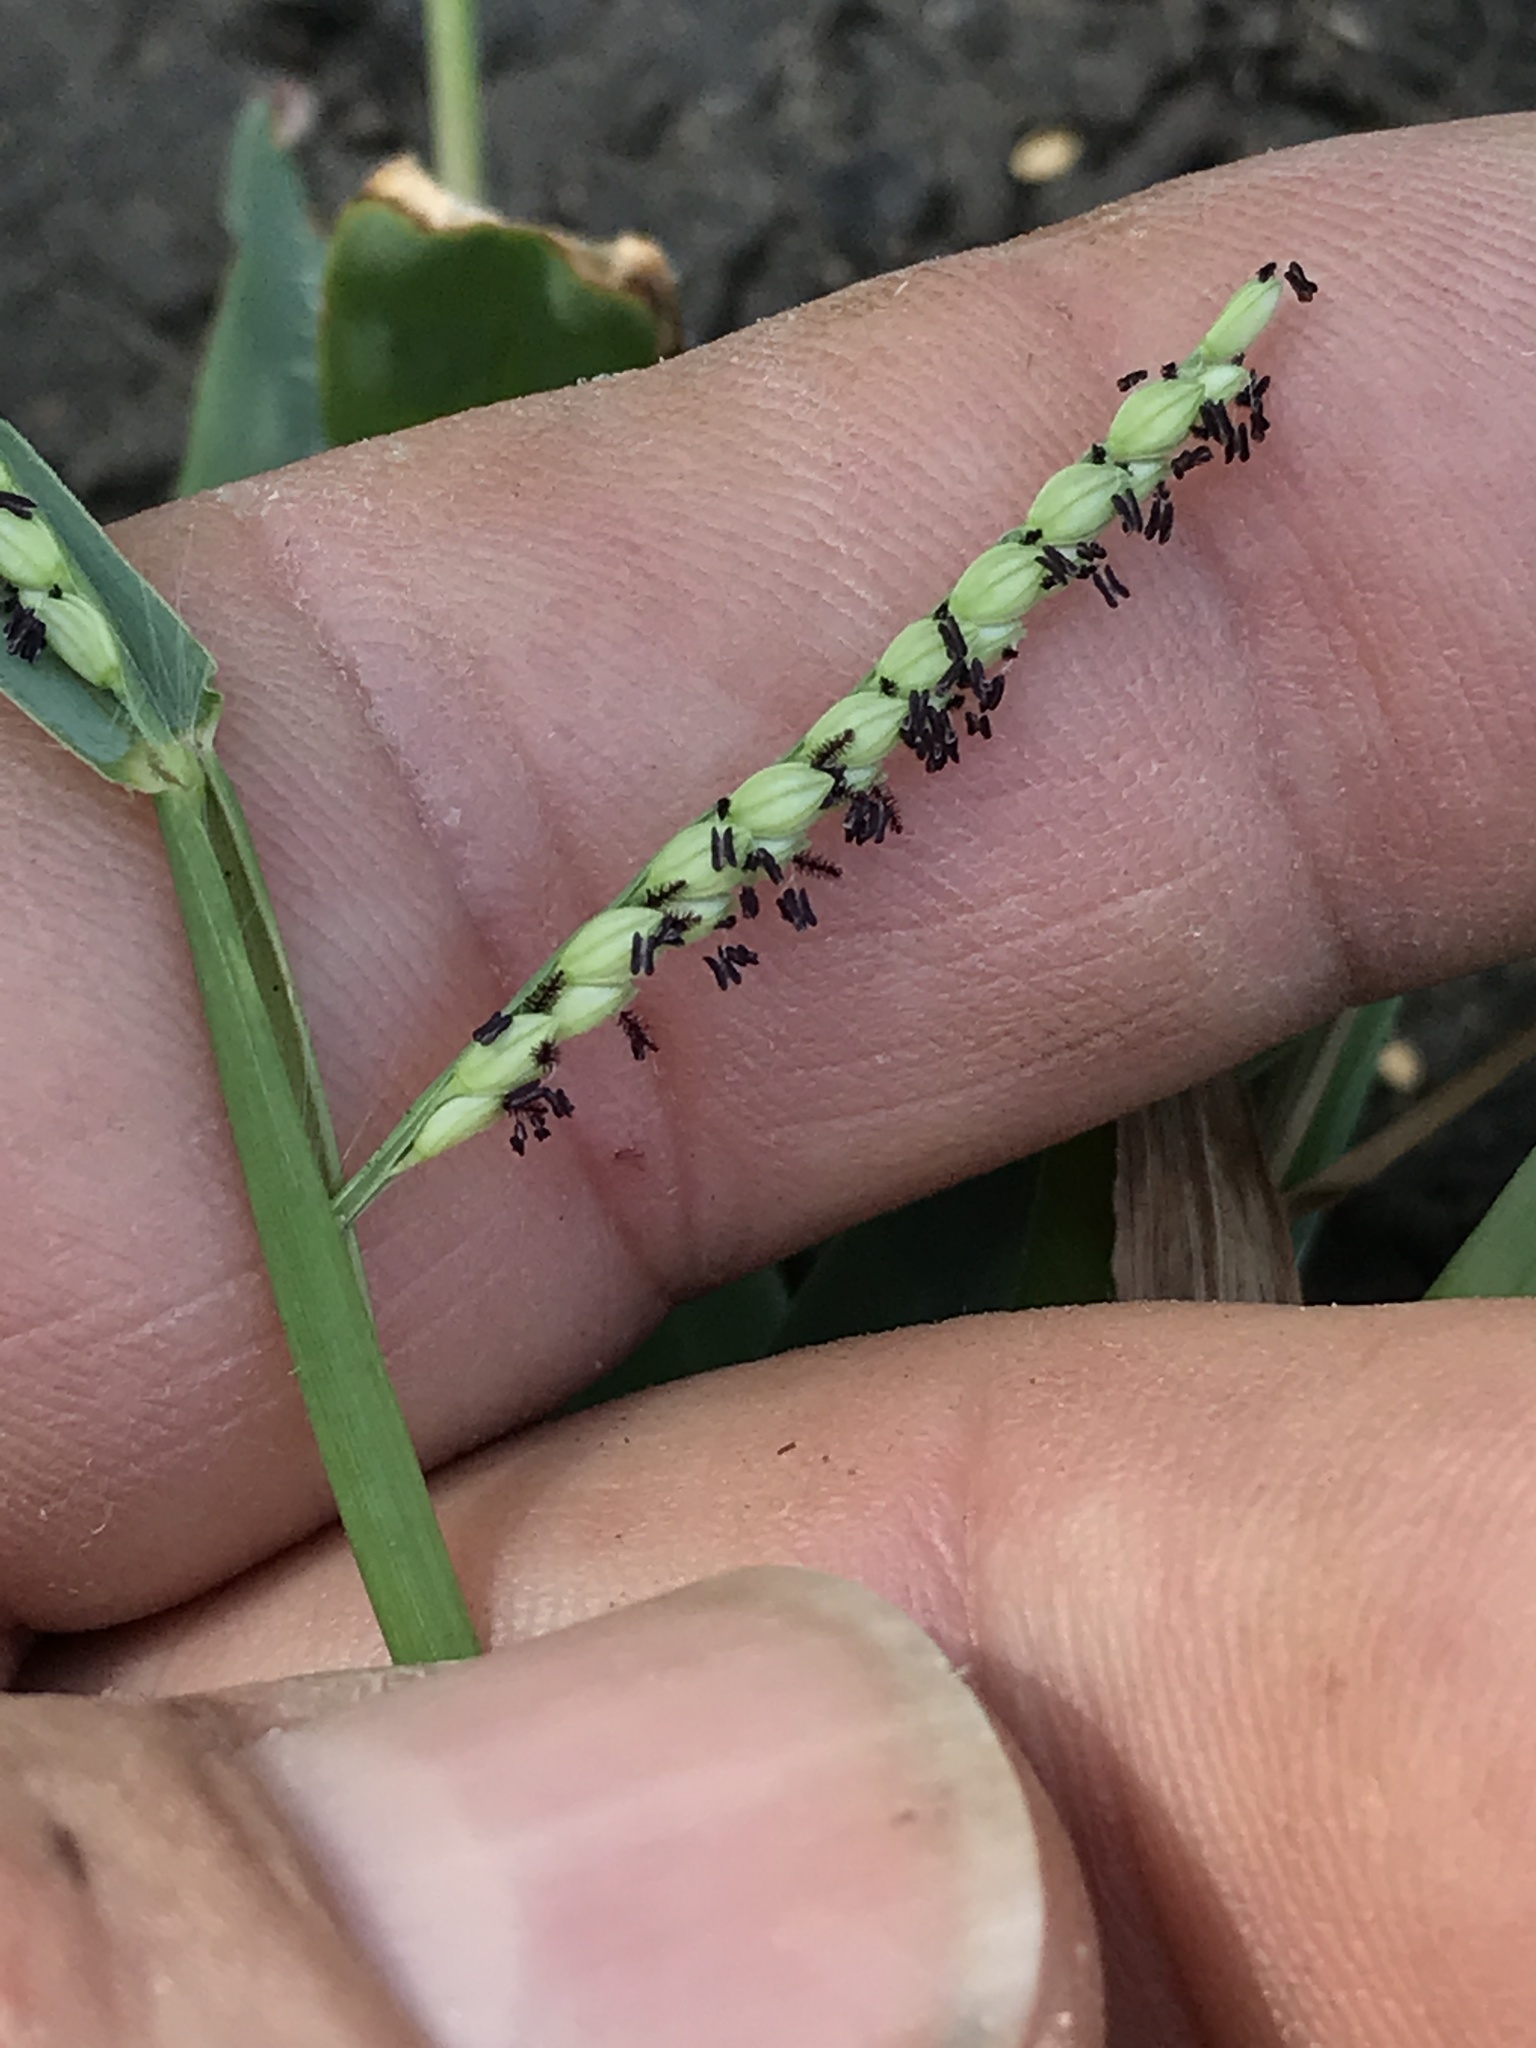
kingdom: Plantae
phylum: Tracheophyta
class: Liliopsida
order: Poales
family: Poaceae
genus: Paspalum
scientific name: Paspalum pubiflorum
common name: Hairy-seed paspalum
